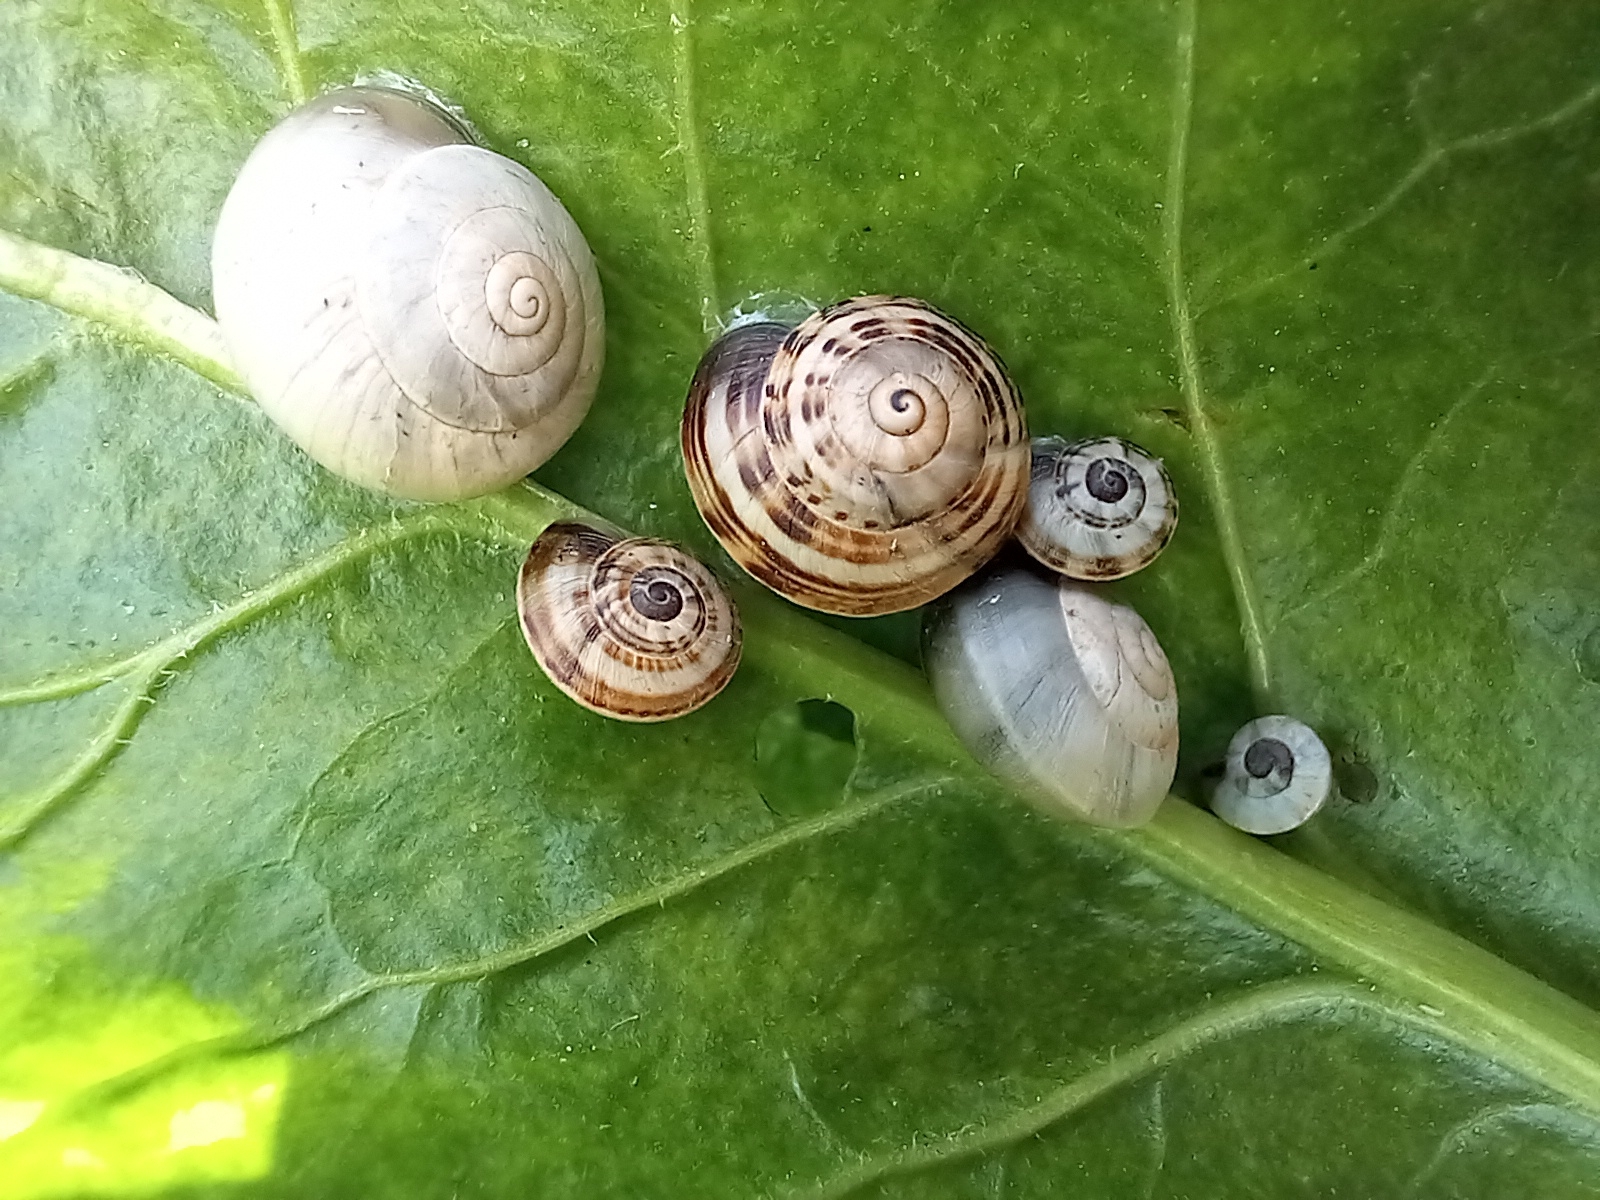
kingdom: Animalia
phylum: Mollusca
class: Gastropoda
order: Stylommatophora
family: Helicidae
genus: Theba
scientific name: Theba pisana
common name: White snail
